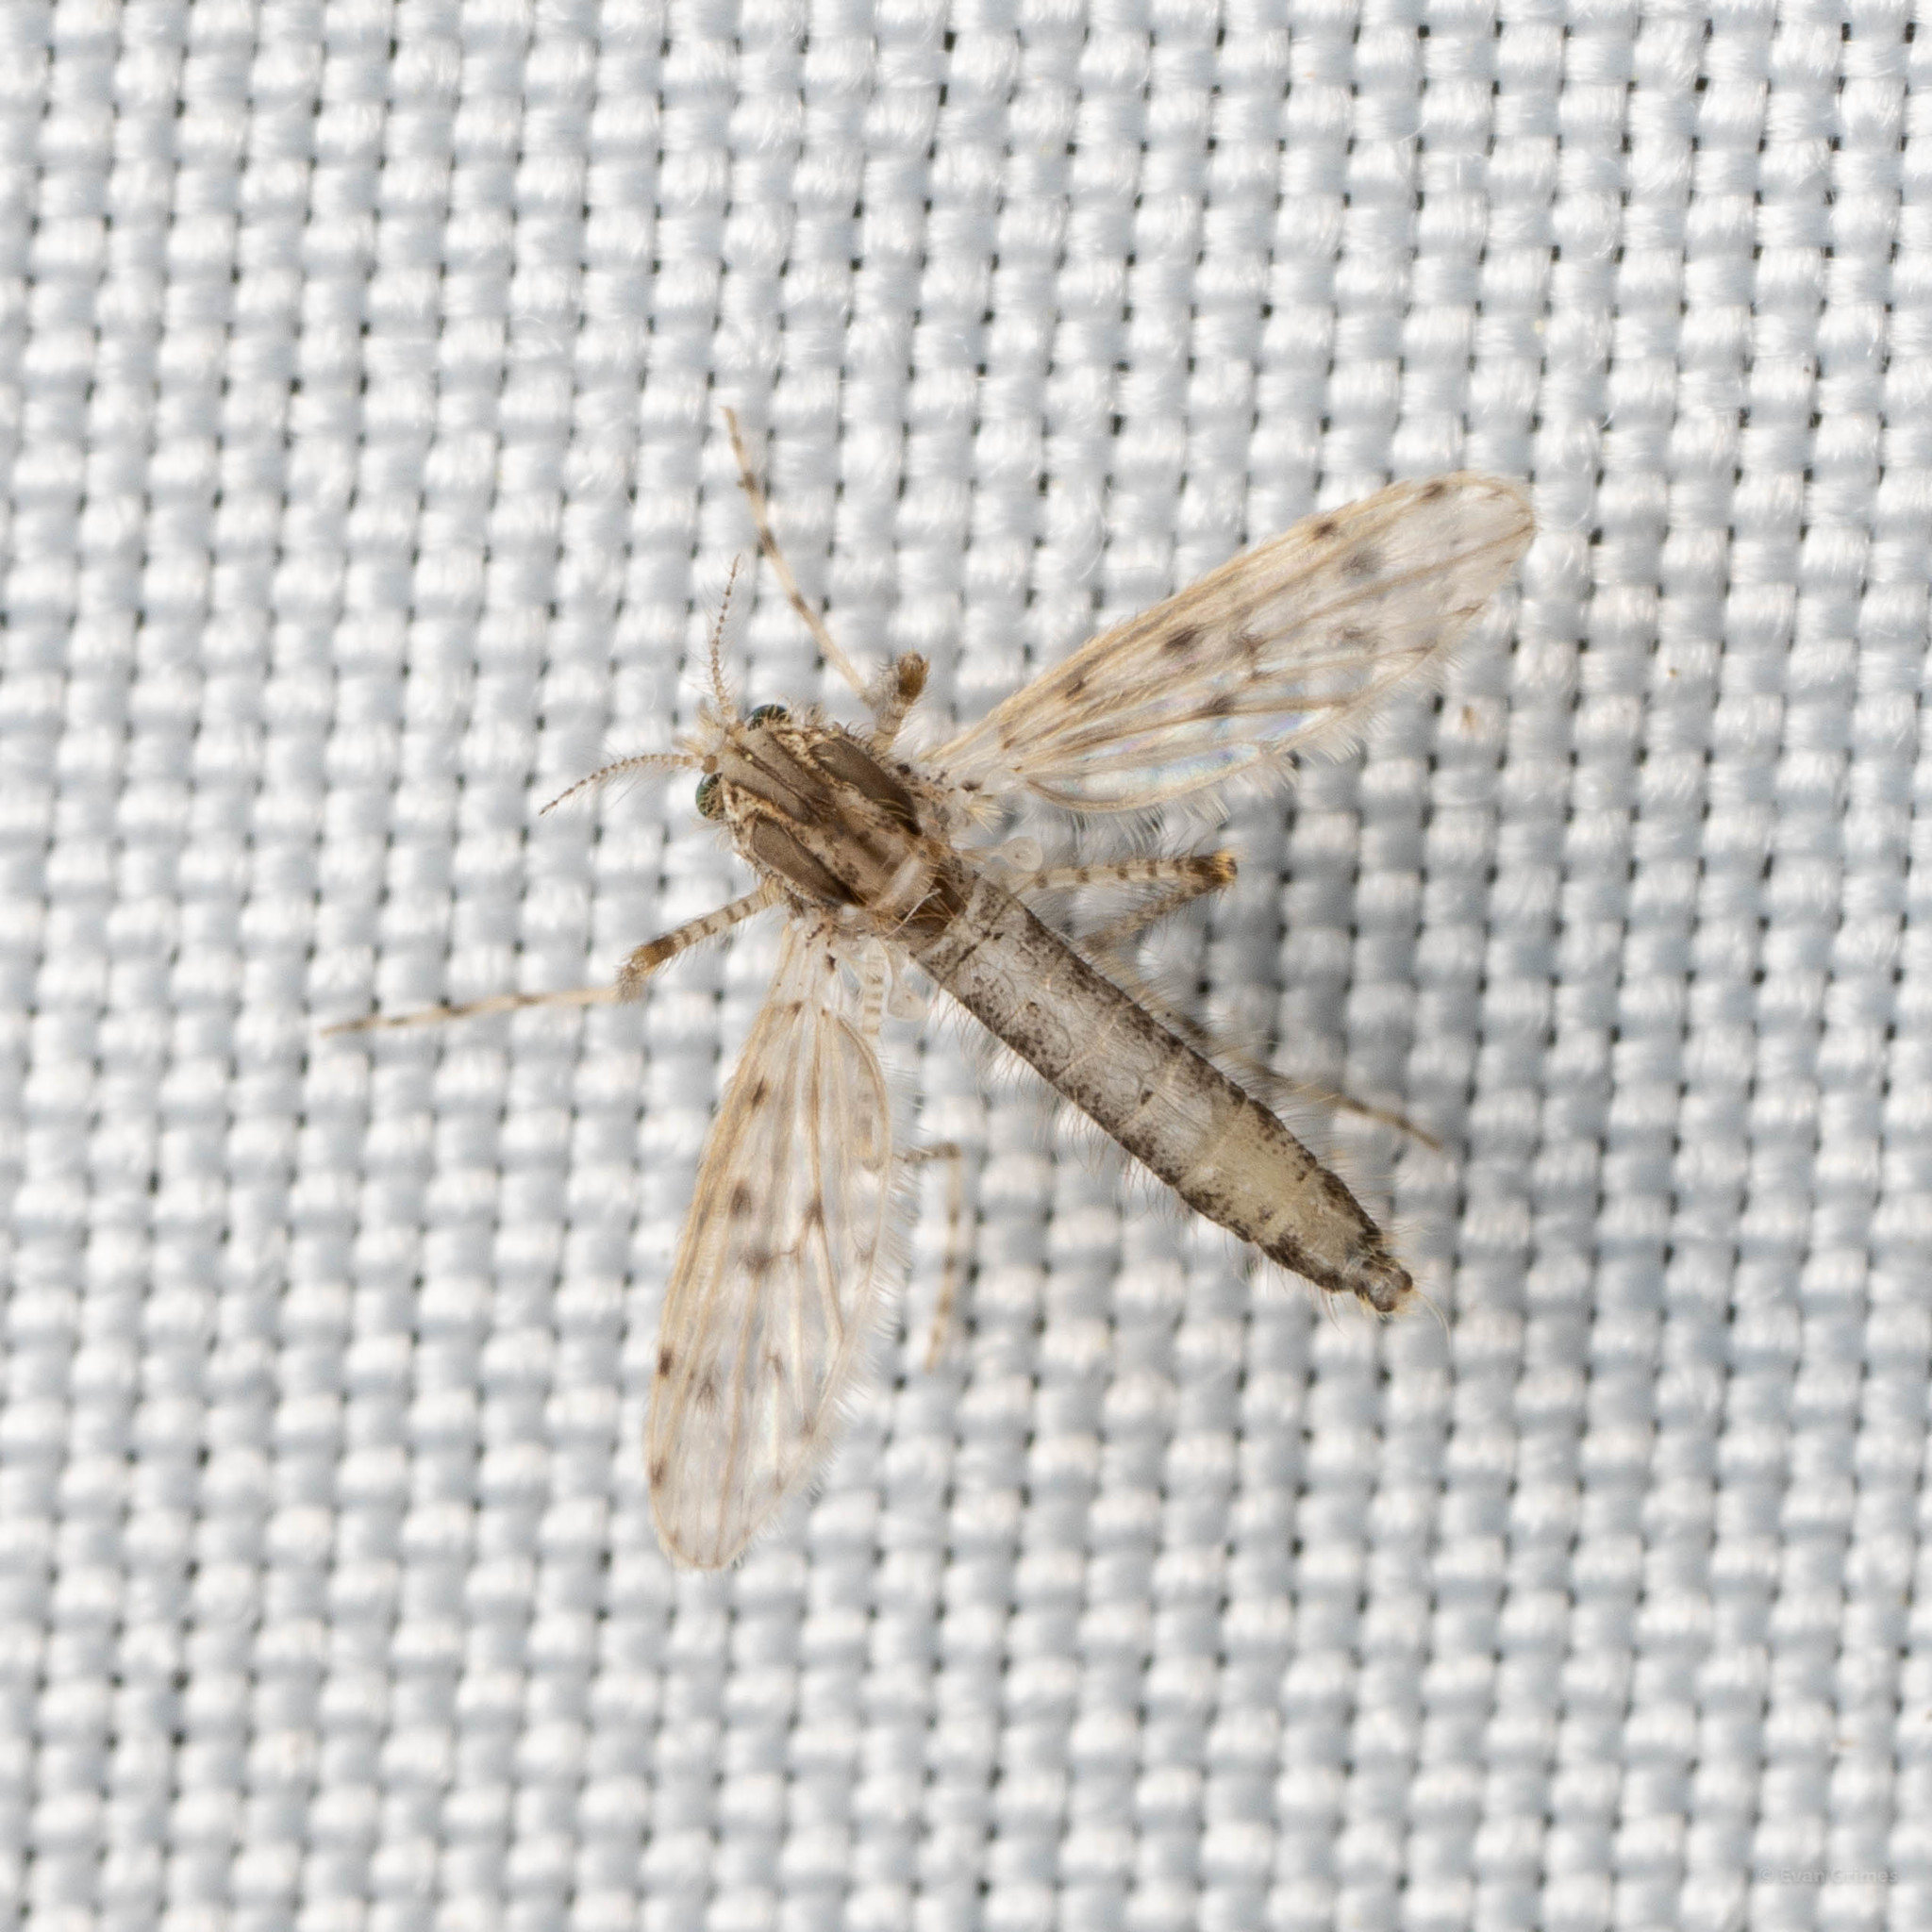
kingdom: Animalia
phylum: Arthropoda
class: Insecta
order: Diptera
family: Chaoboridae
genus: Chaoborus
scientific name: Chaoborus punctipennis
